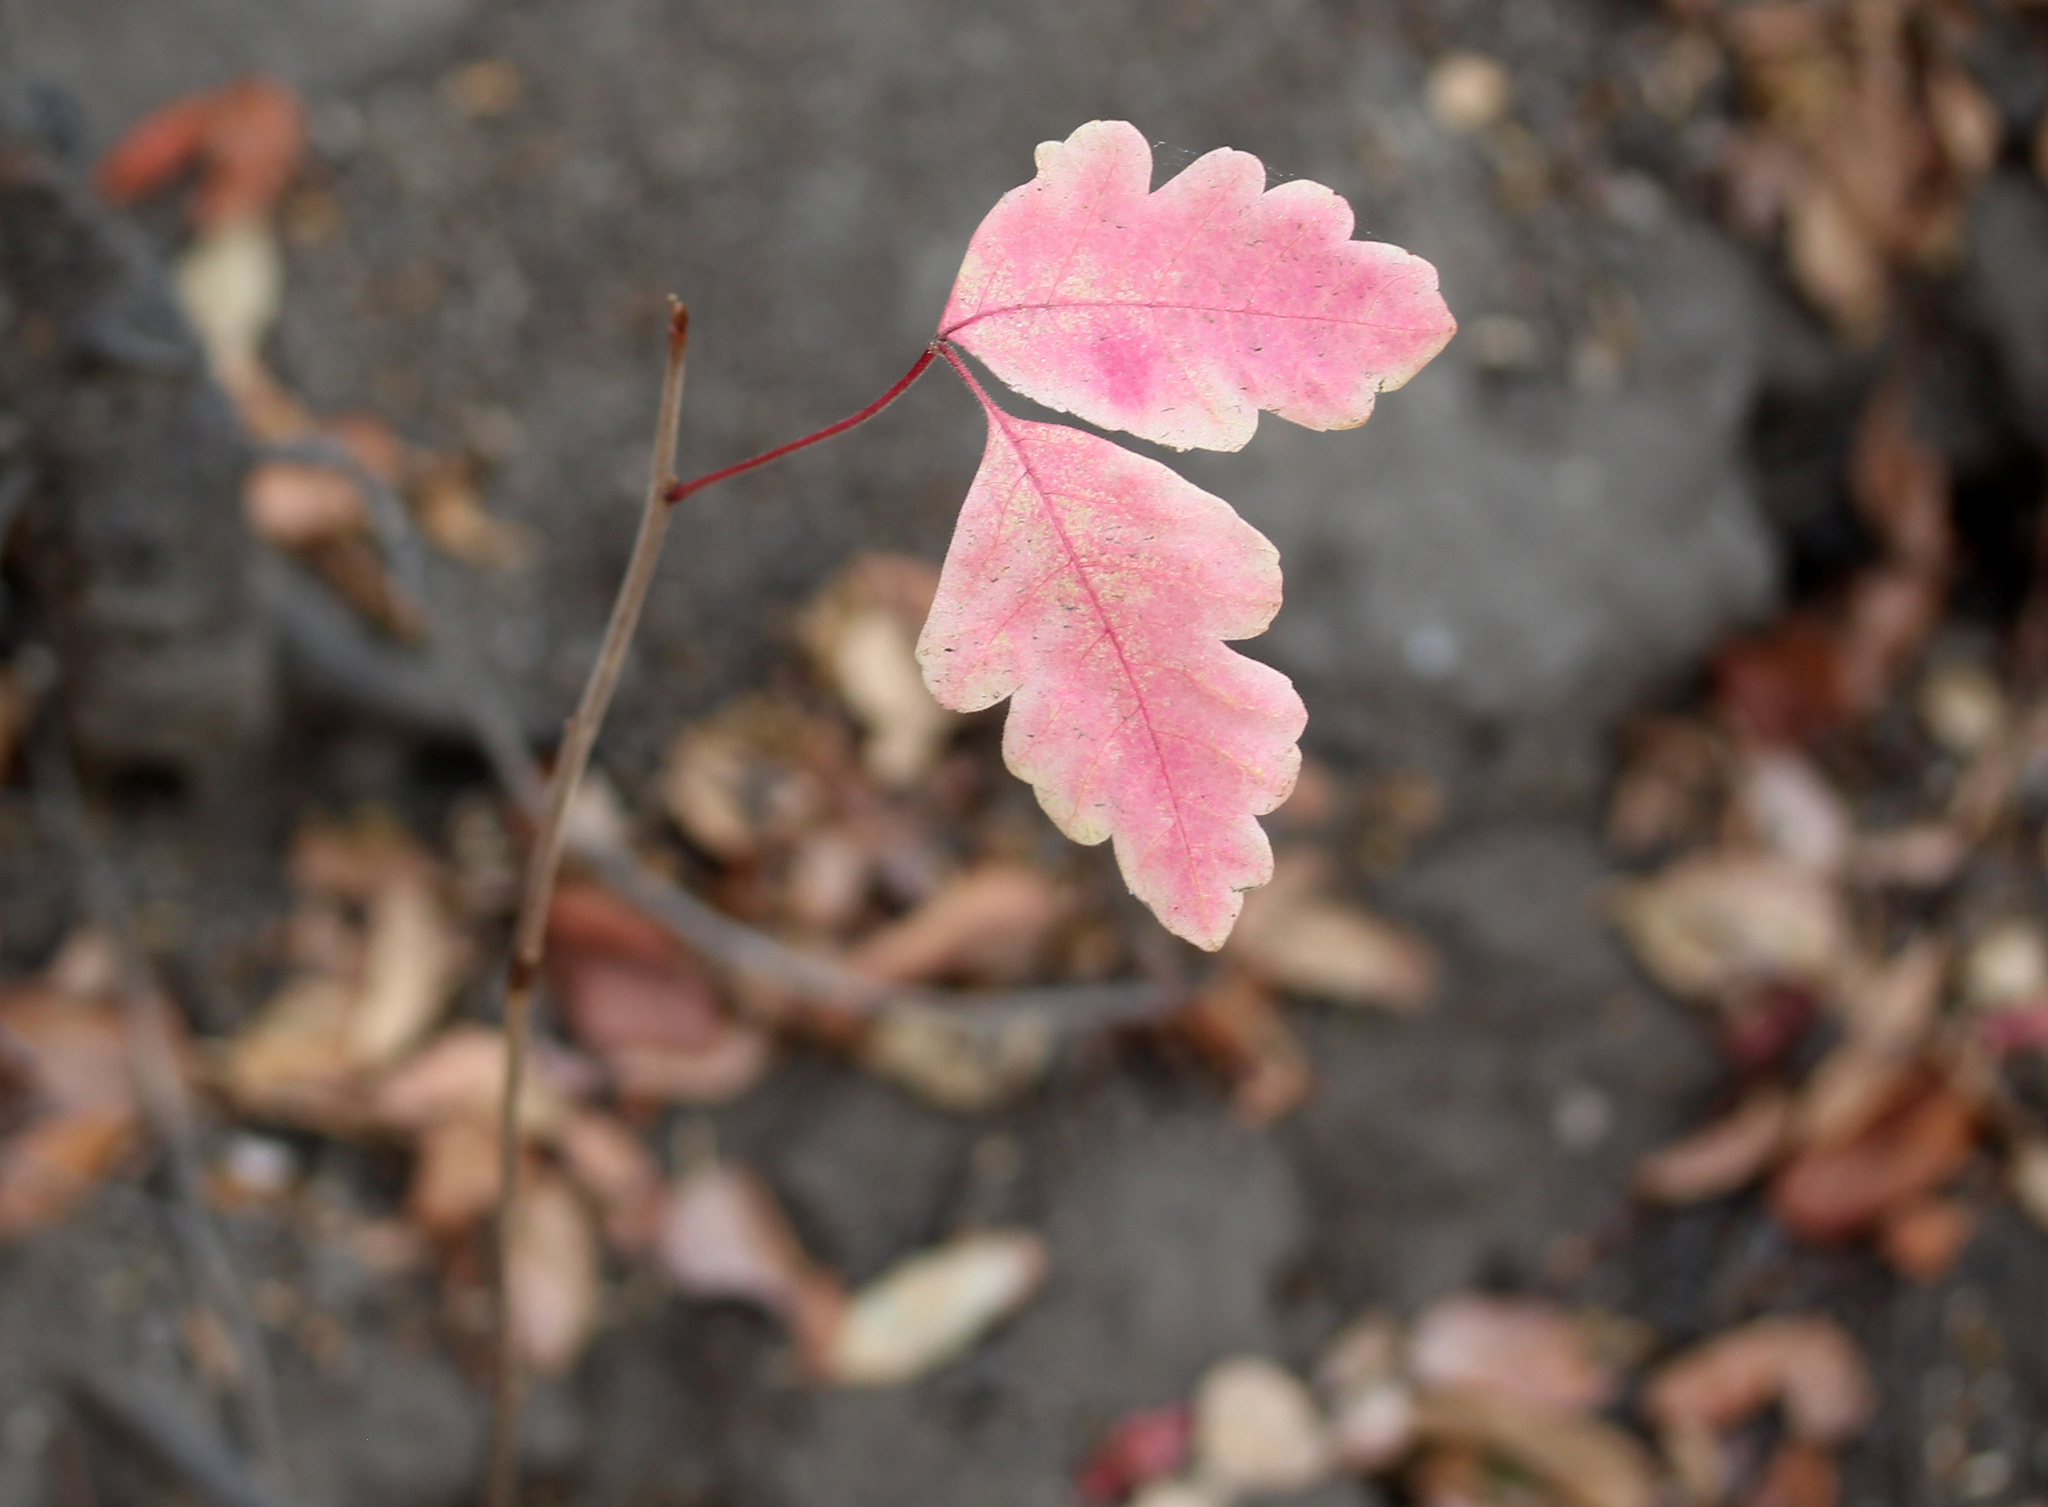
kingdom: Plantae
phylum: Tracheophyta
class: Magnoliopsida
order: Sapindales
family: Anacardiaceae
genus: Toxicodendron
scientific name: Toxicodendron diversilobum
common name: Pacific poison-oak
